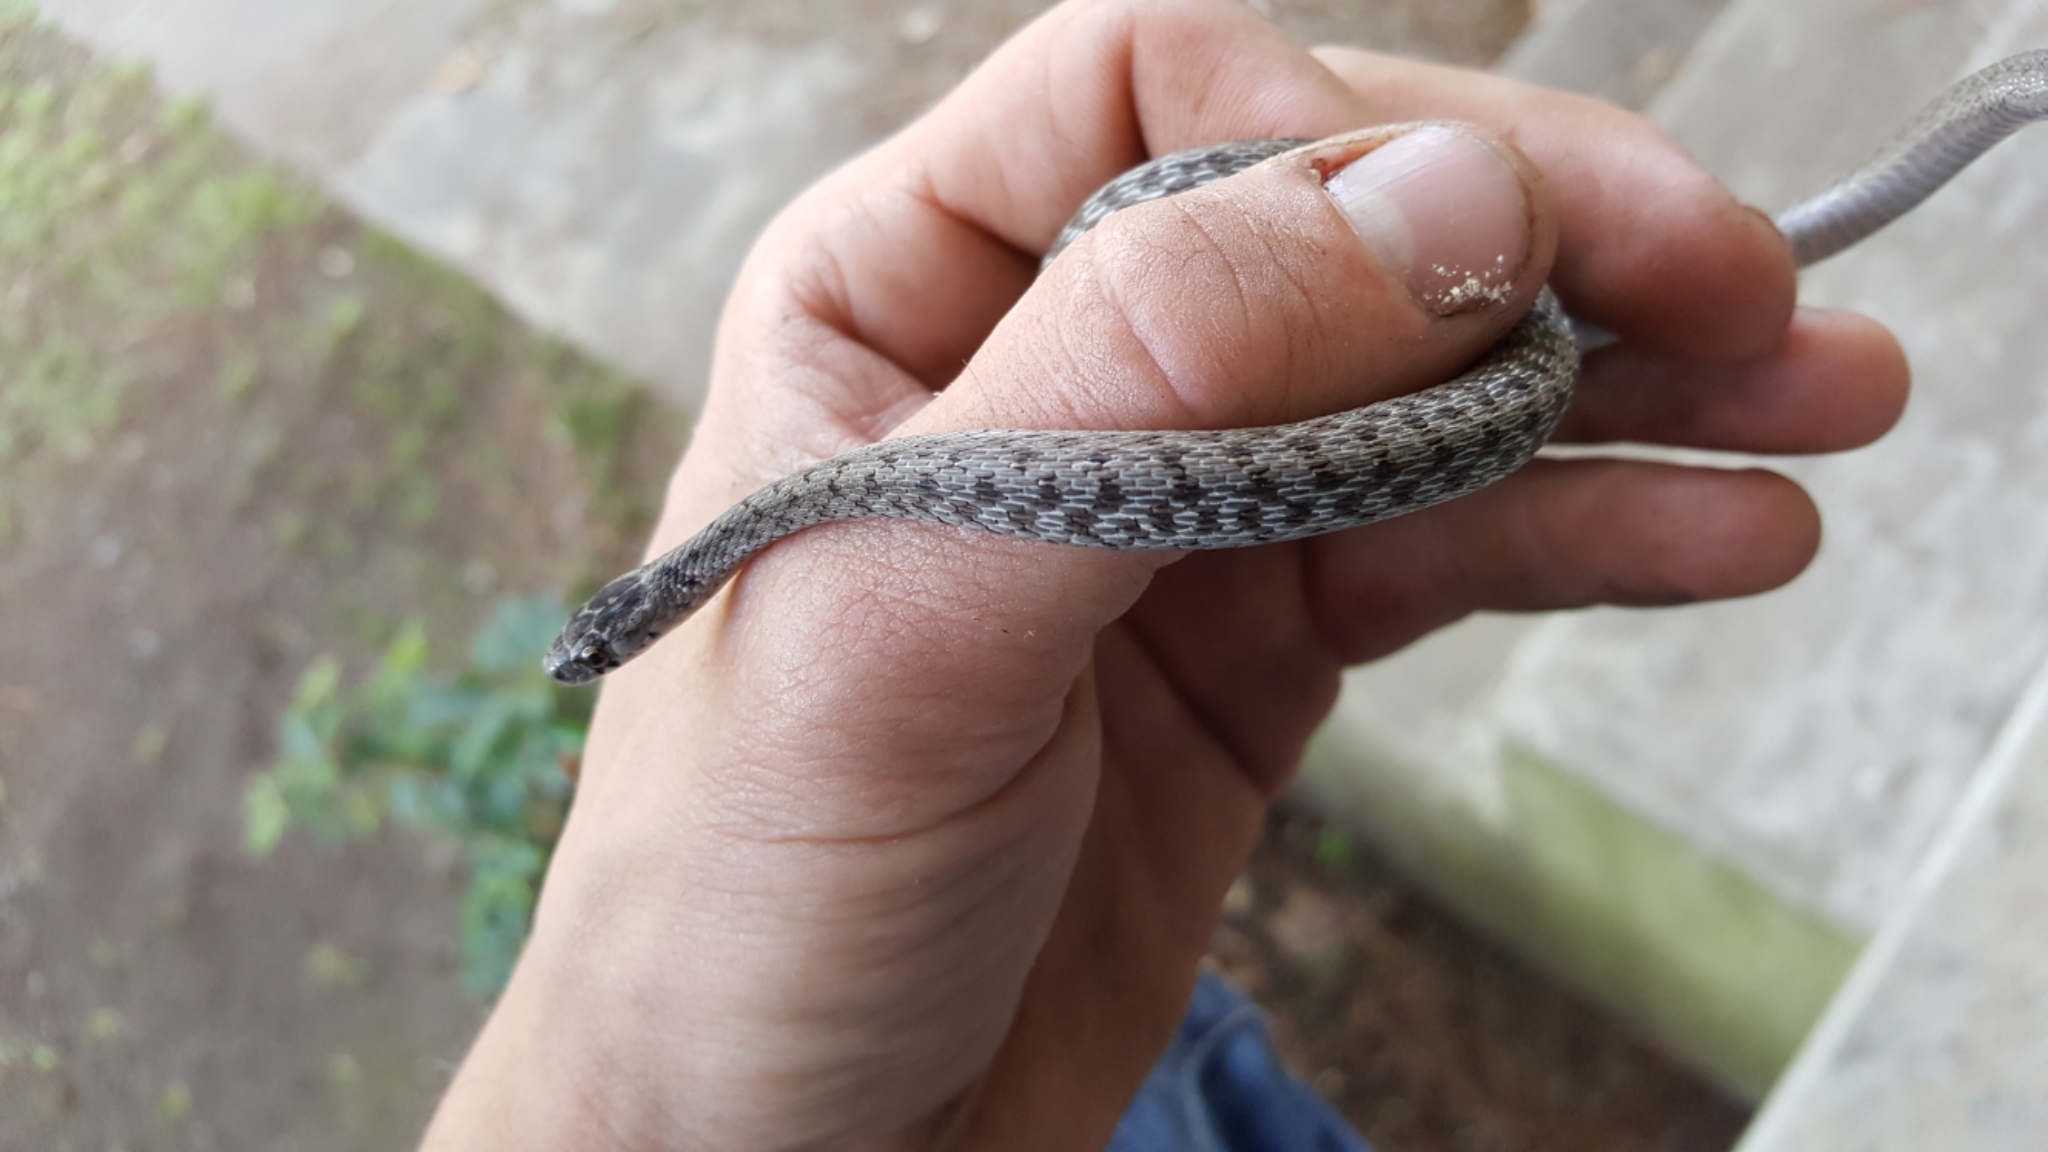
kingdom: Animalia
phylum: Chordata
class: Squamata
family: Colubridae
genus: Storeria
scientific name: Storeria dekayi
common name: (dekay’s) brown snake
